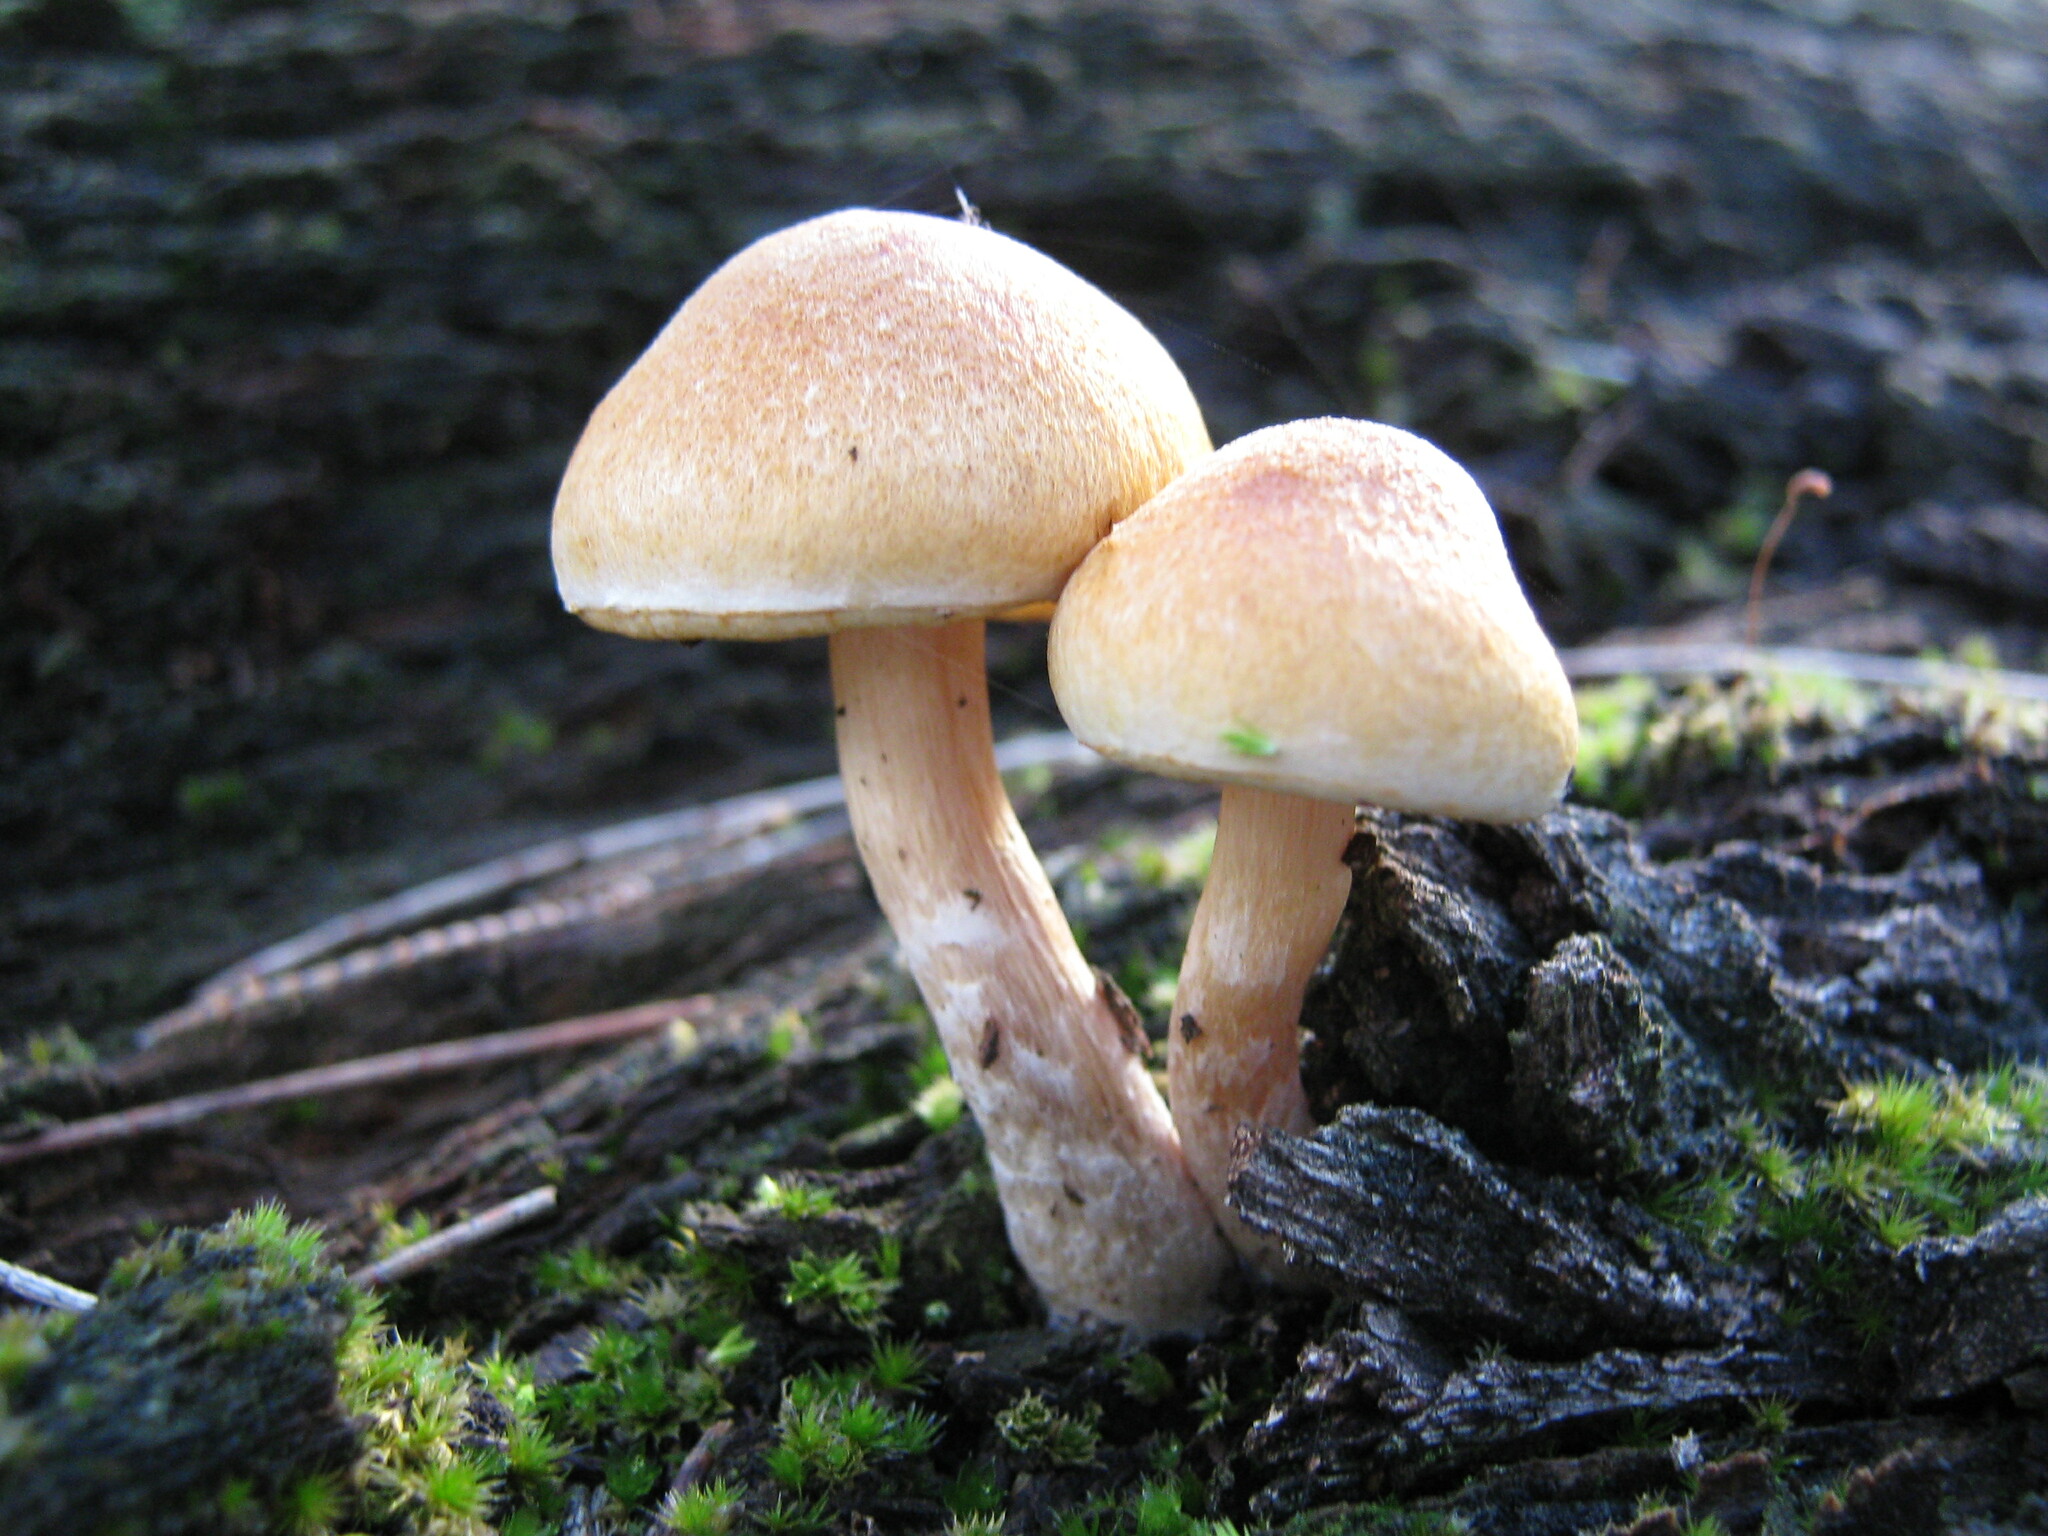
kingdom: Fungi
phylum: Basidiomycota
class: Agaricomycetes
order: Agaricales
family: Hymenogastraceae
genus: Gymnopilus
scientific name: Gymnopilus allantopus
